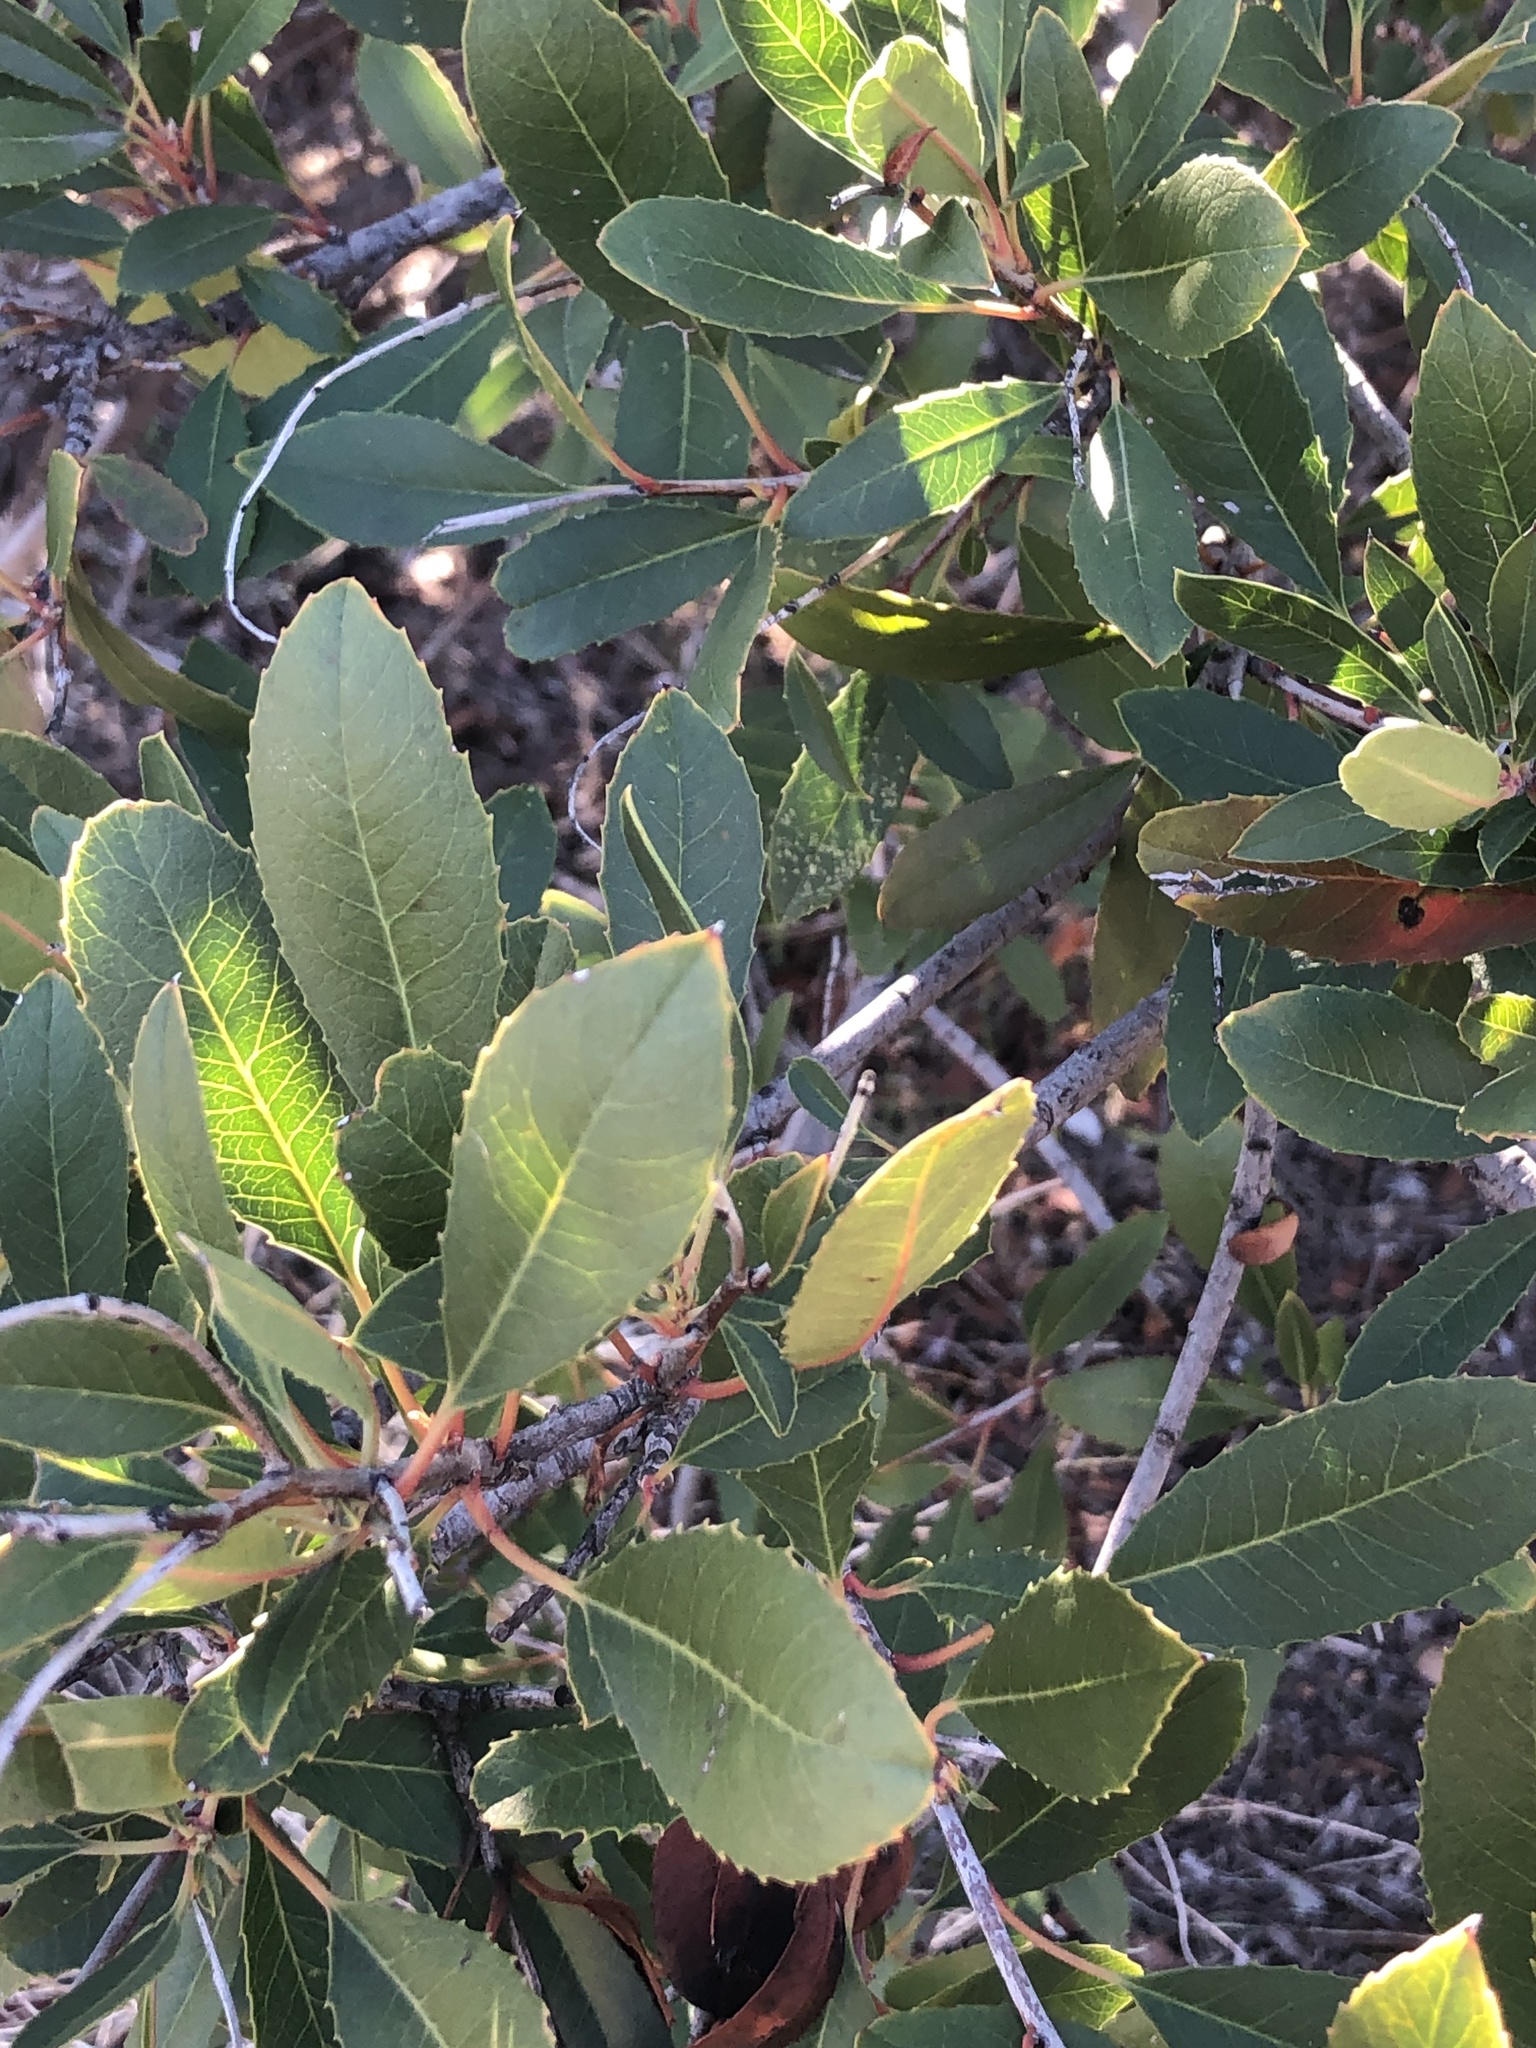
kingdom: Plantae
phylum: Tracheophyta
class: Magnoliopsida
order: Rosales
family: Rosaceae
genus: Heteromeles
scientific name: Heteromeles arbutifolia
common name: California-holly
